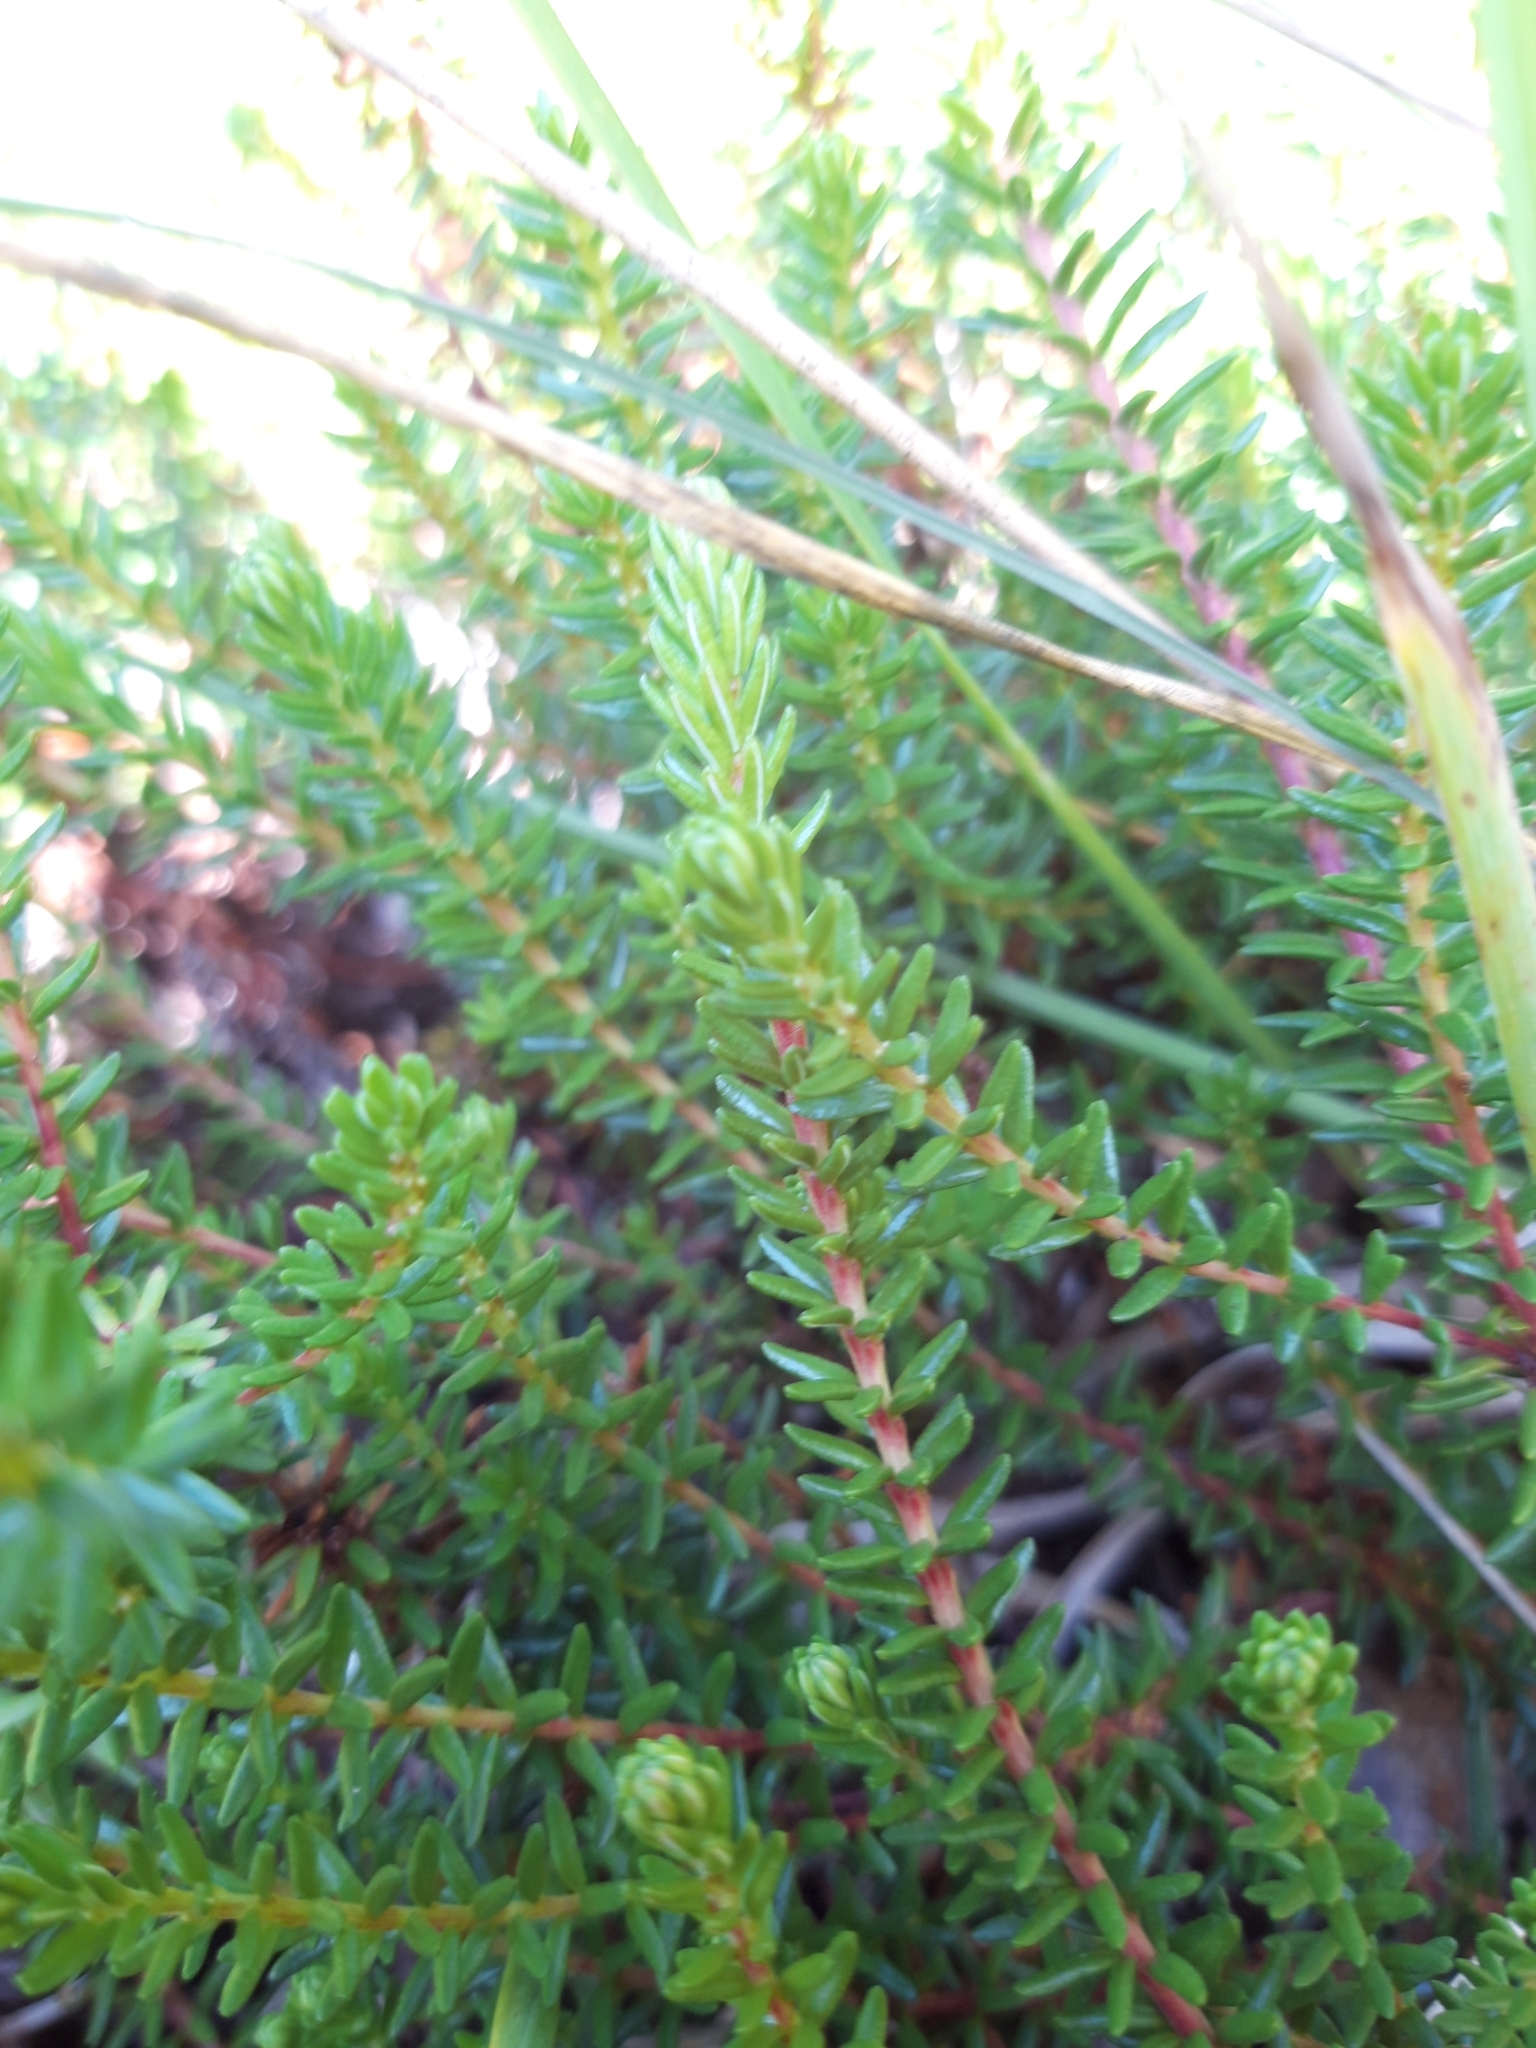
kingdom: Plantae
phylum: Tracheophyta
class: Magnoliopsida
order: Ericales
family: Ericaceae
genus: Empetrum
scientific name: Empetrum nigrum
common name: Black crowberry
